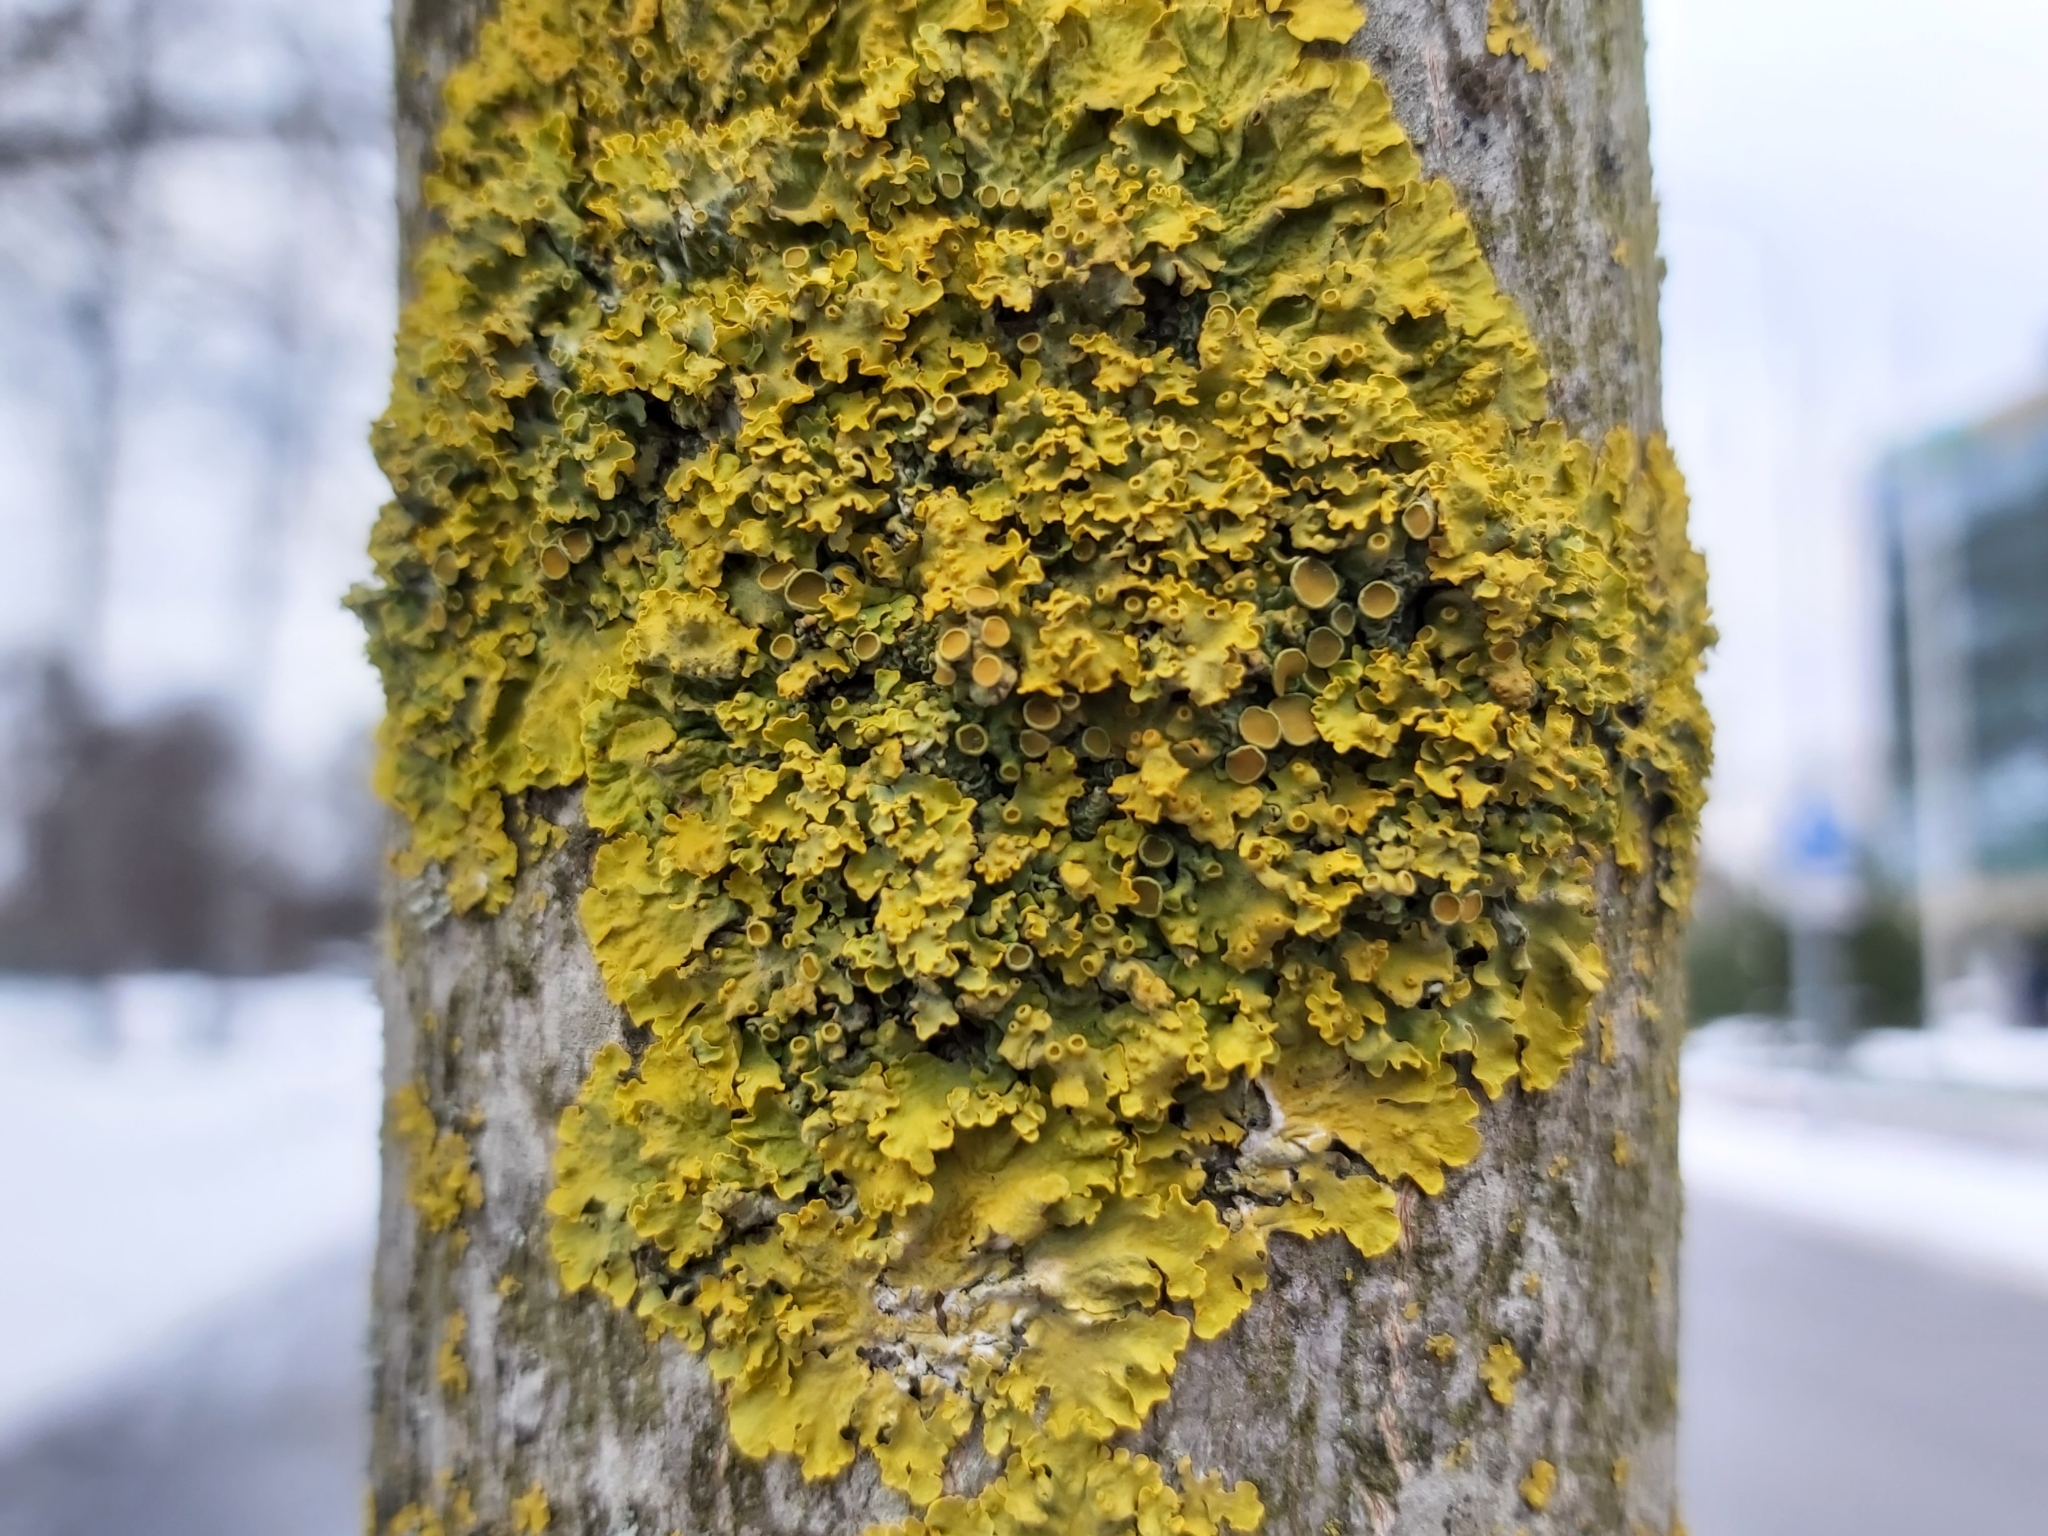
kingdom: Fungi
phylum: Ascomycota
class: Lecanoromycetes
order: Teloschistales
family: Teloschistaceae
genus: Xanthoria
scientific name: Xanthoria parietina
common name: Common orange lichen
